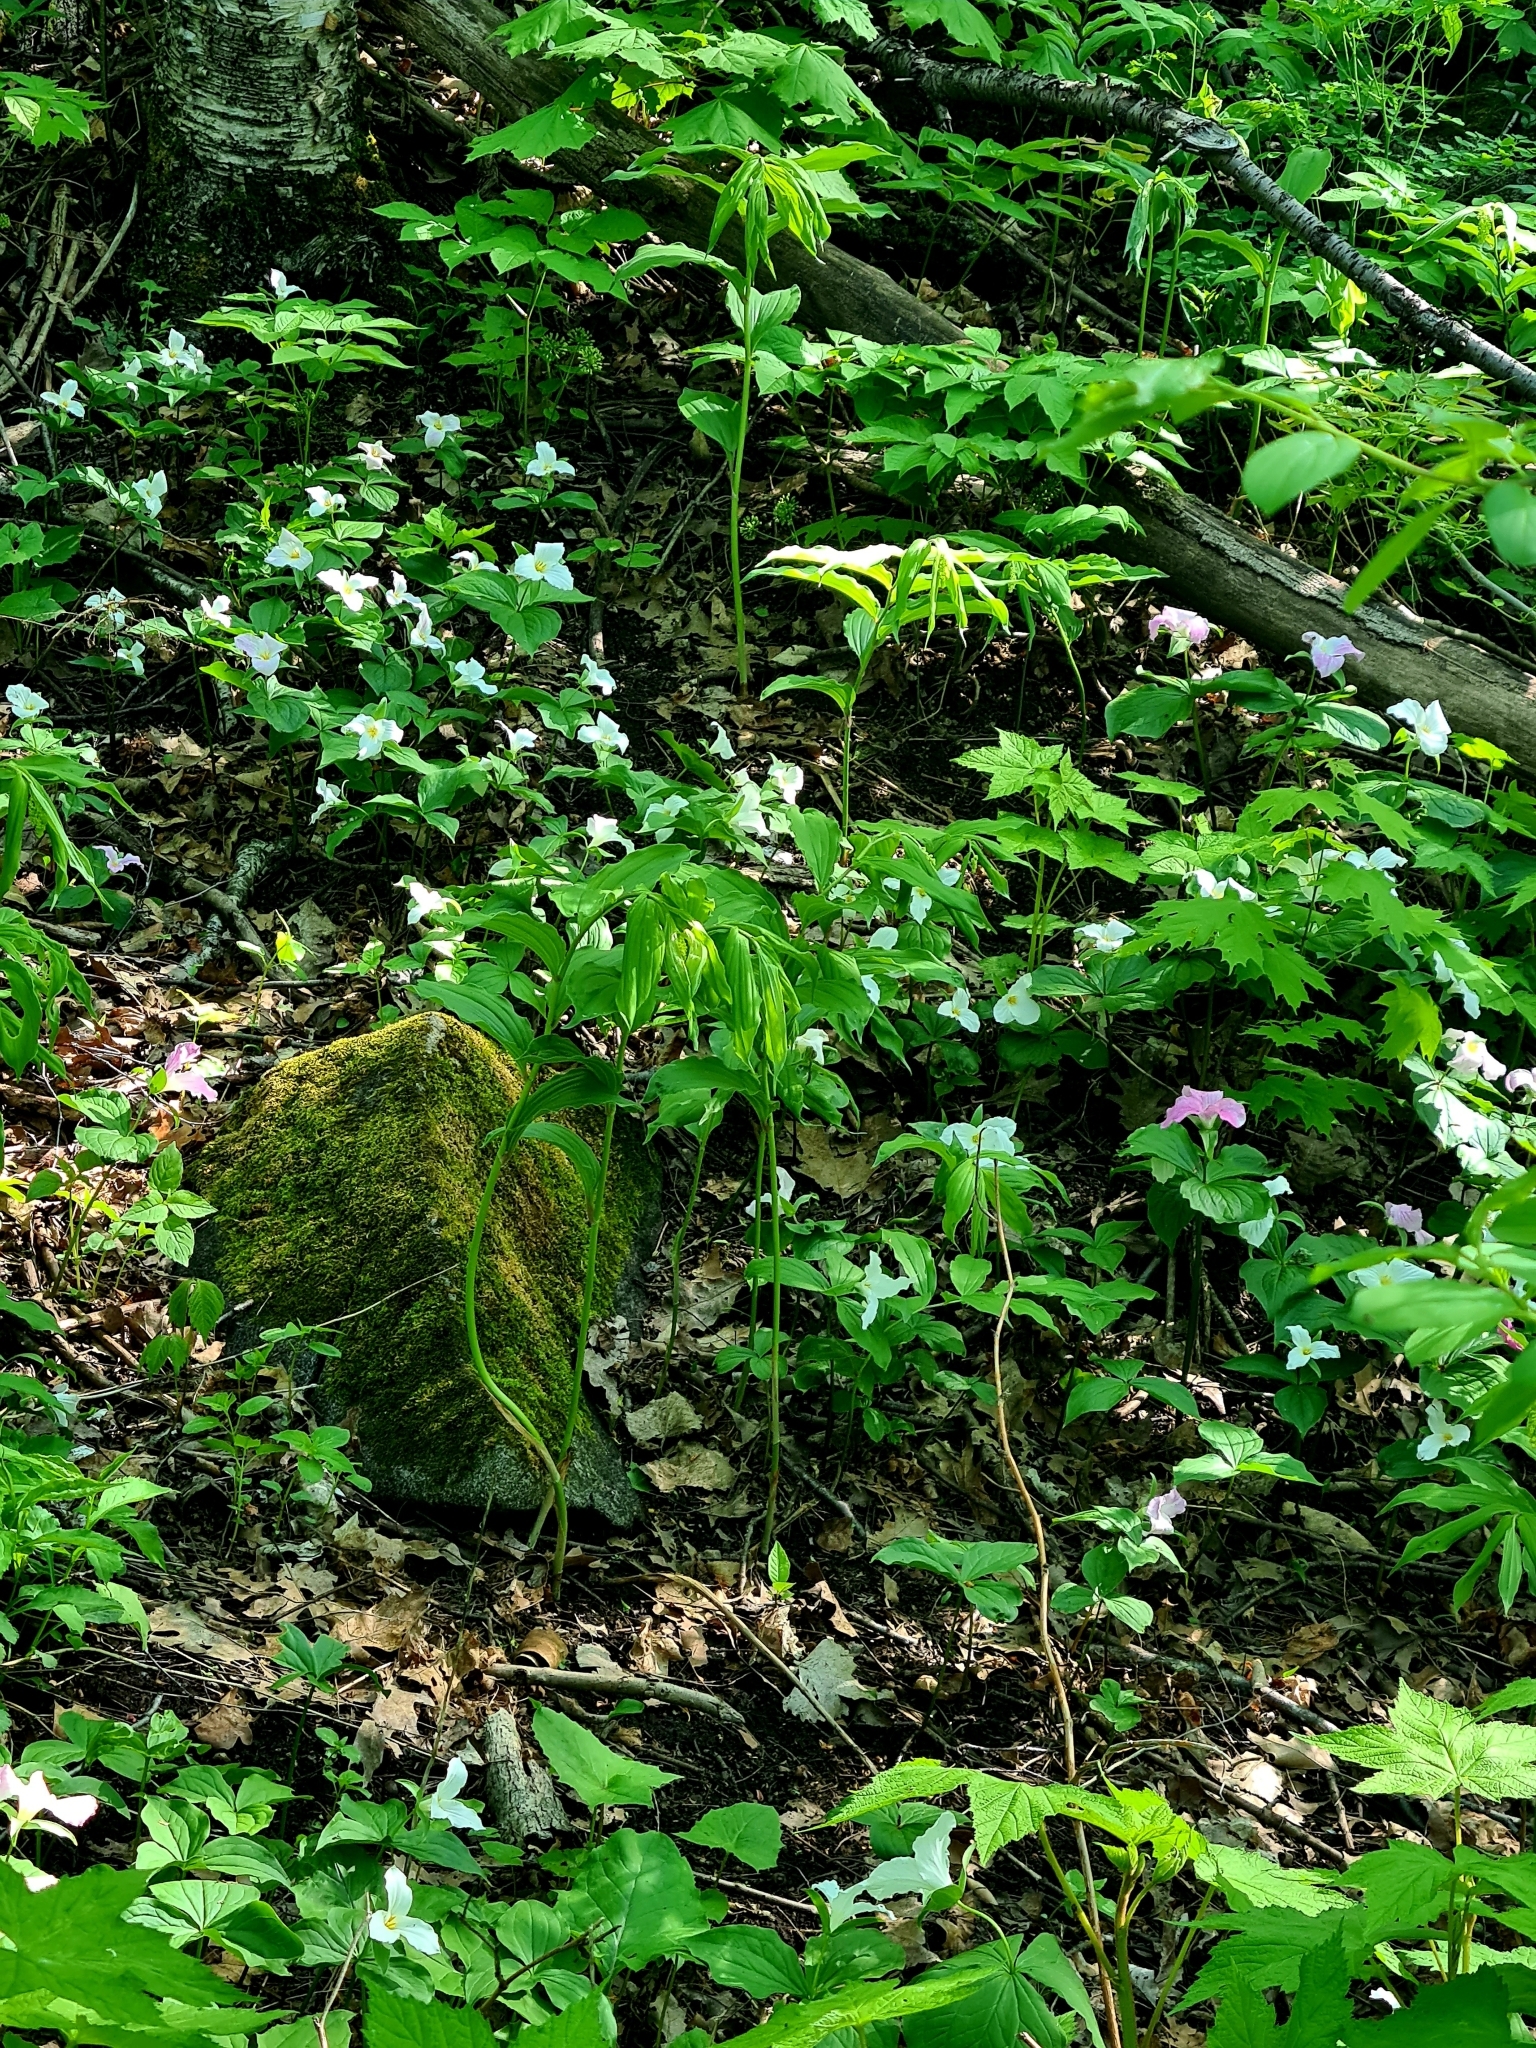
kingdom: Plantae
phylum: Tracheophyta
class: Liliopsida
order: Liliales
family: Melanthiaceae
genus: Trillium
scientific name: Trillium grandiflorum
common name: Great white trillium
